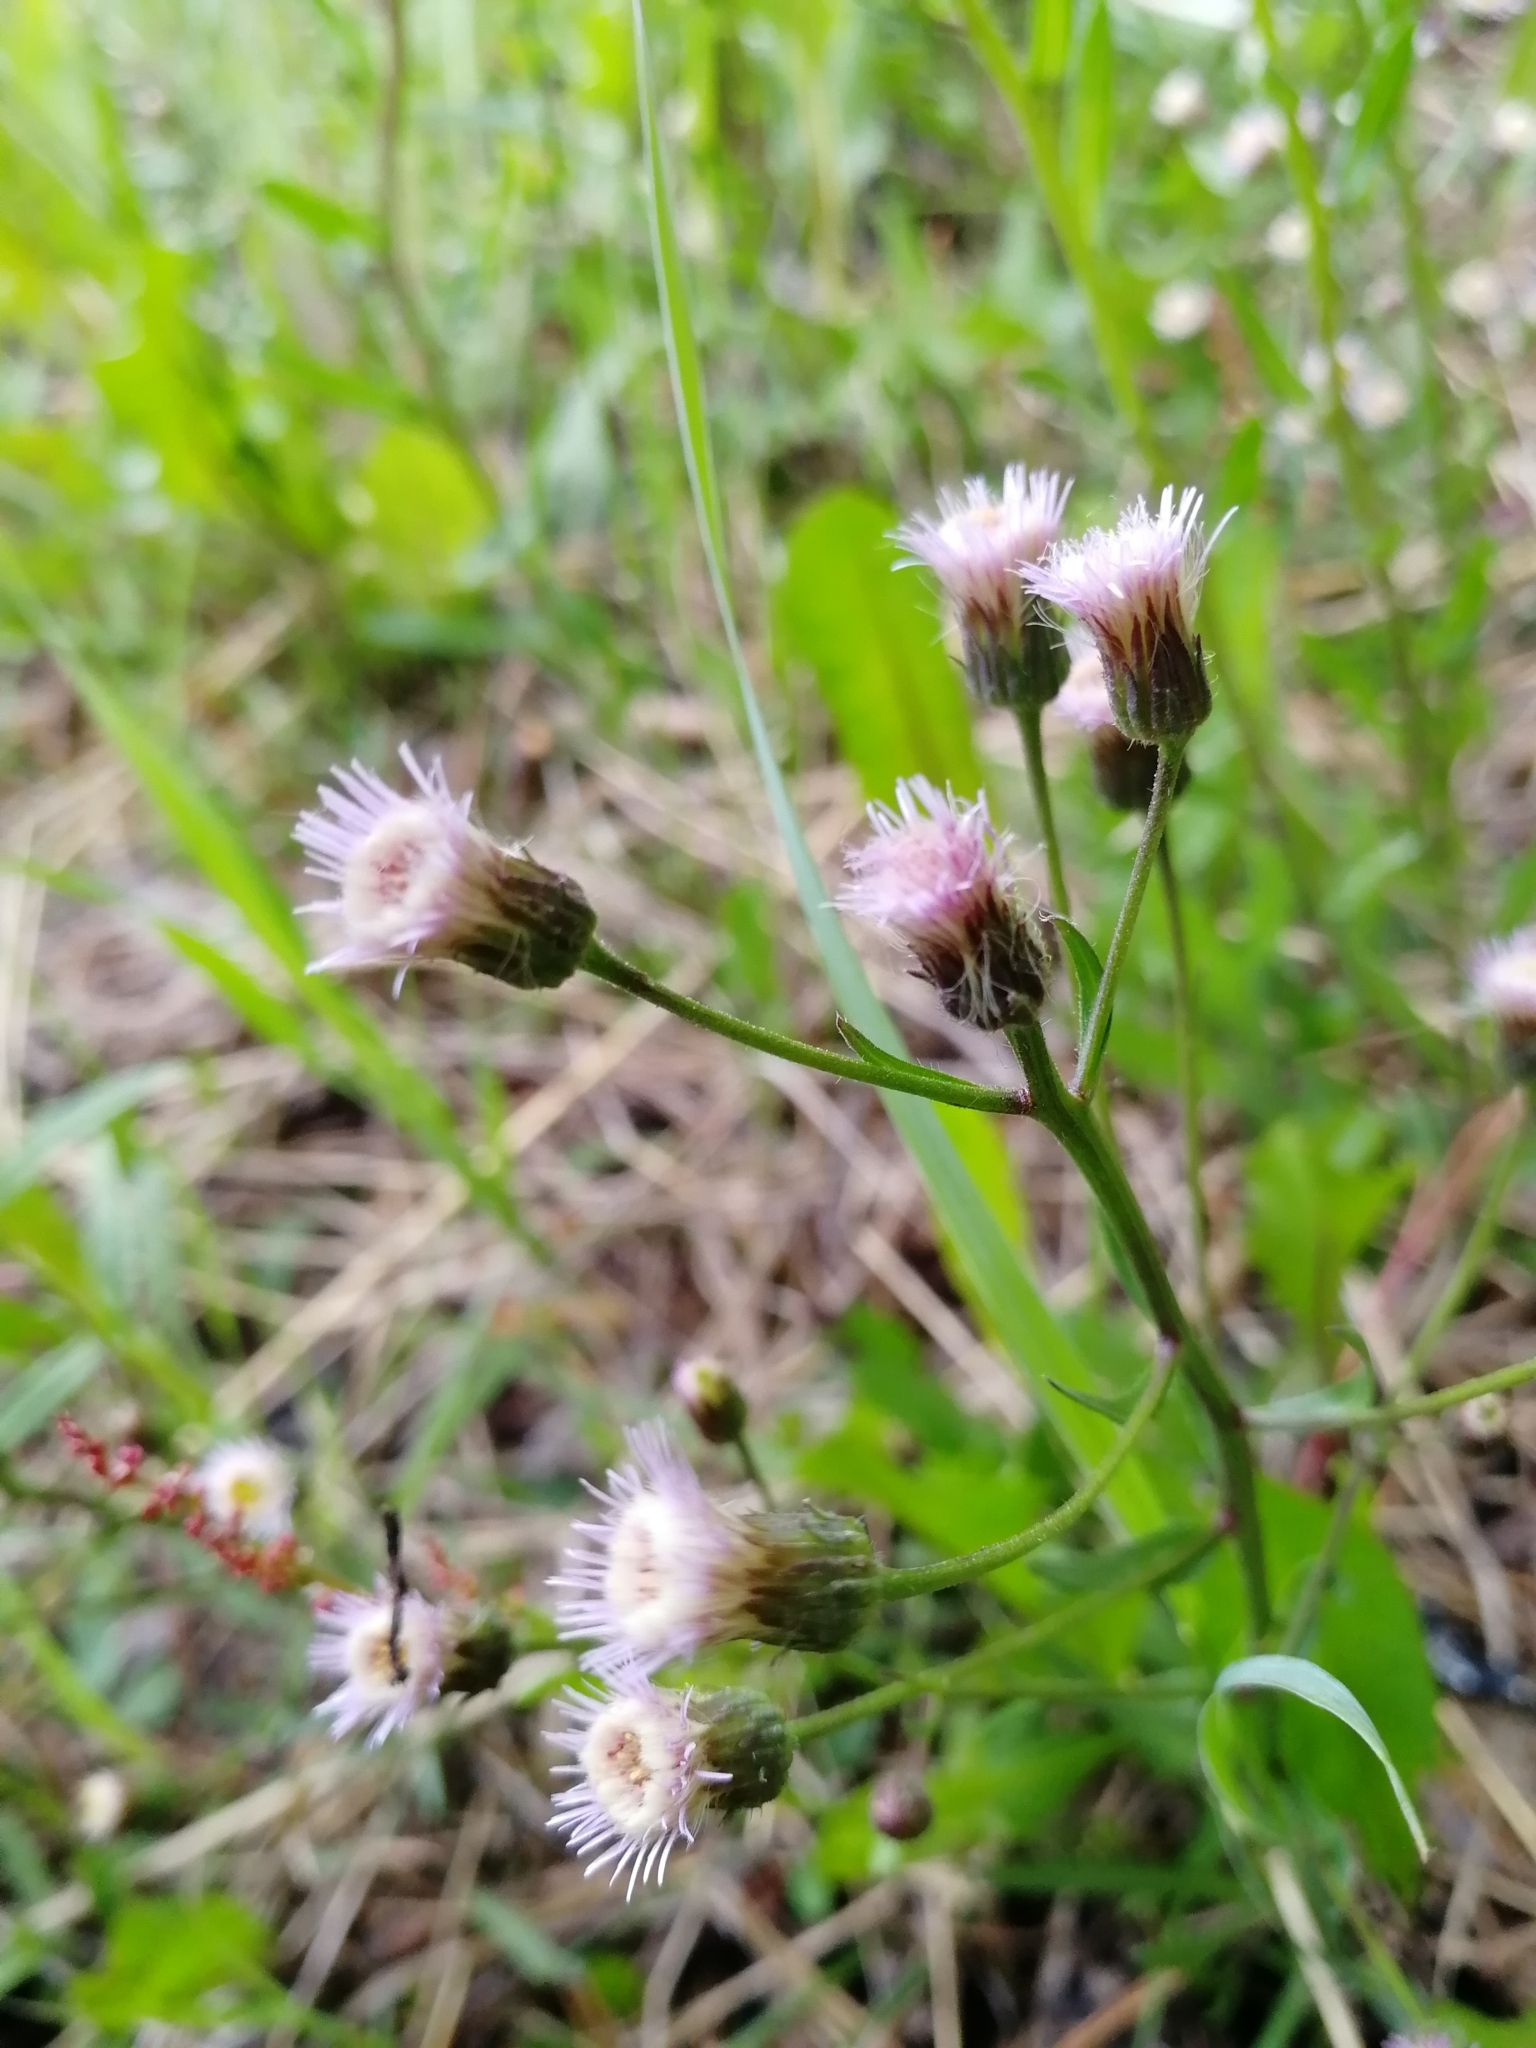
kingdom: Plantae
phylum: Tracheophyta
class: Magnoliopsida
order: Asterales
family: Asteraceae
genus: Erigeron
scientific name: Erigeron acris
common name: Blue fleabane
